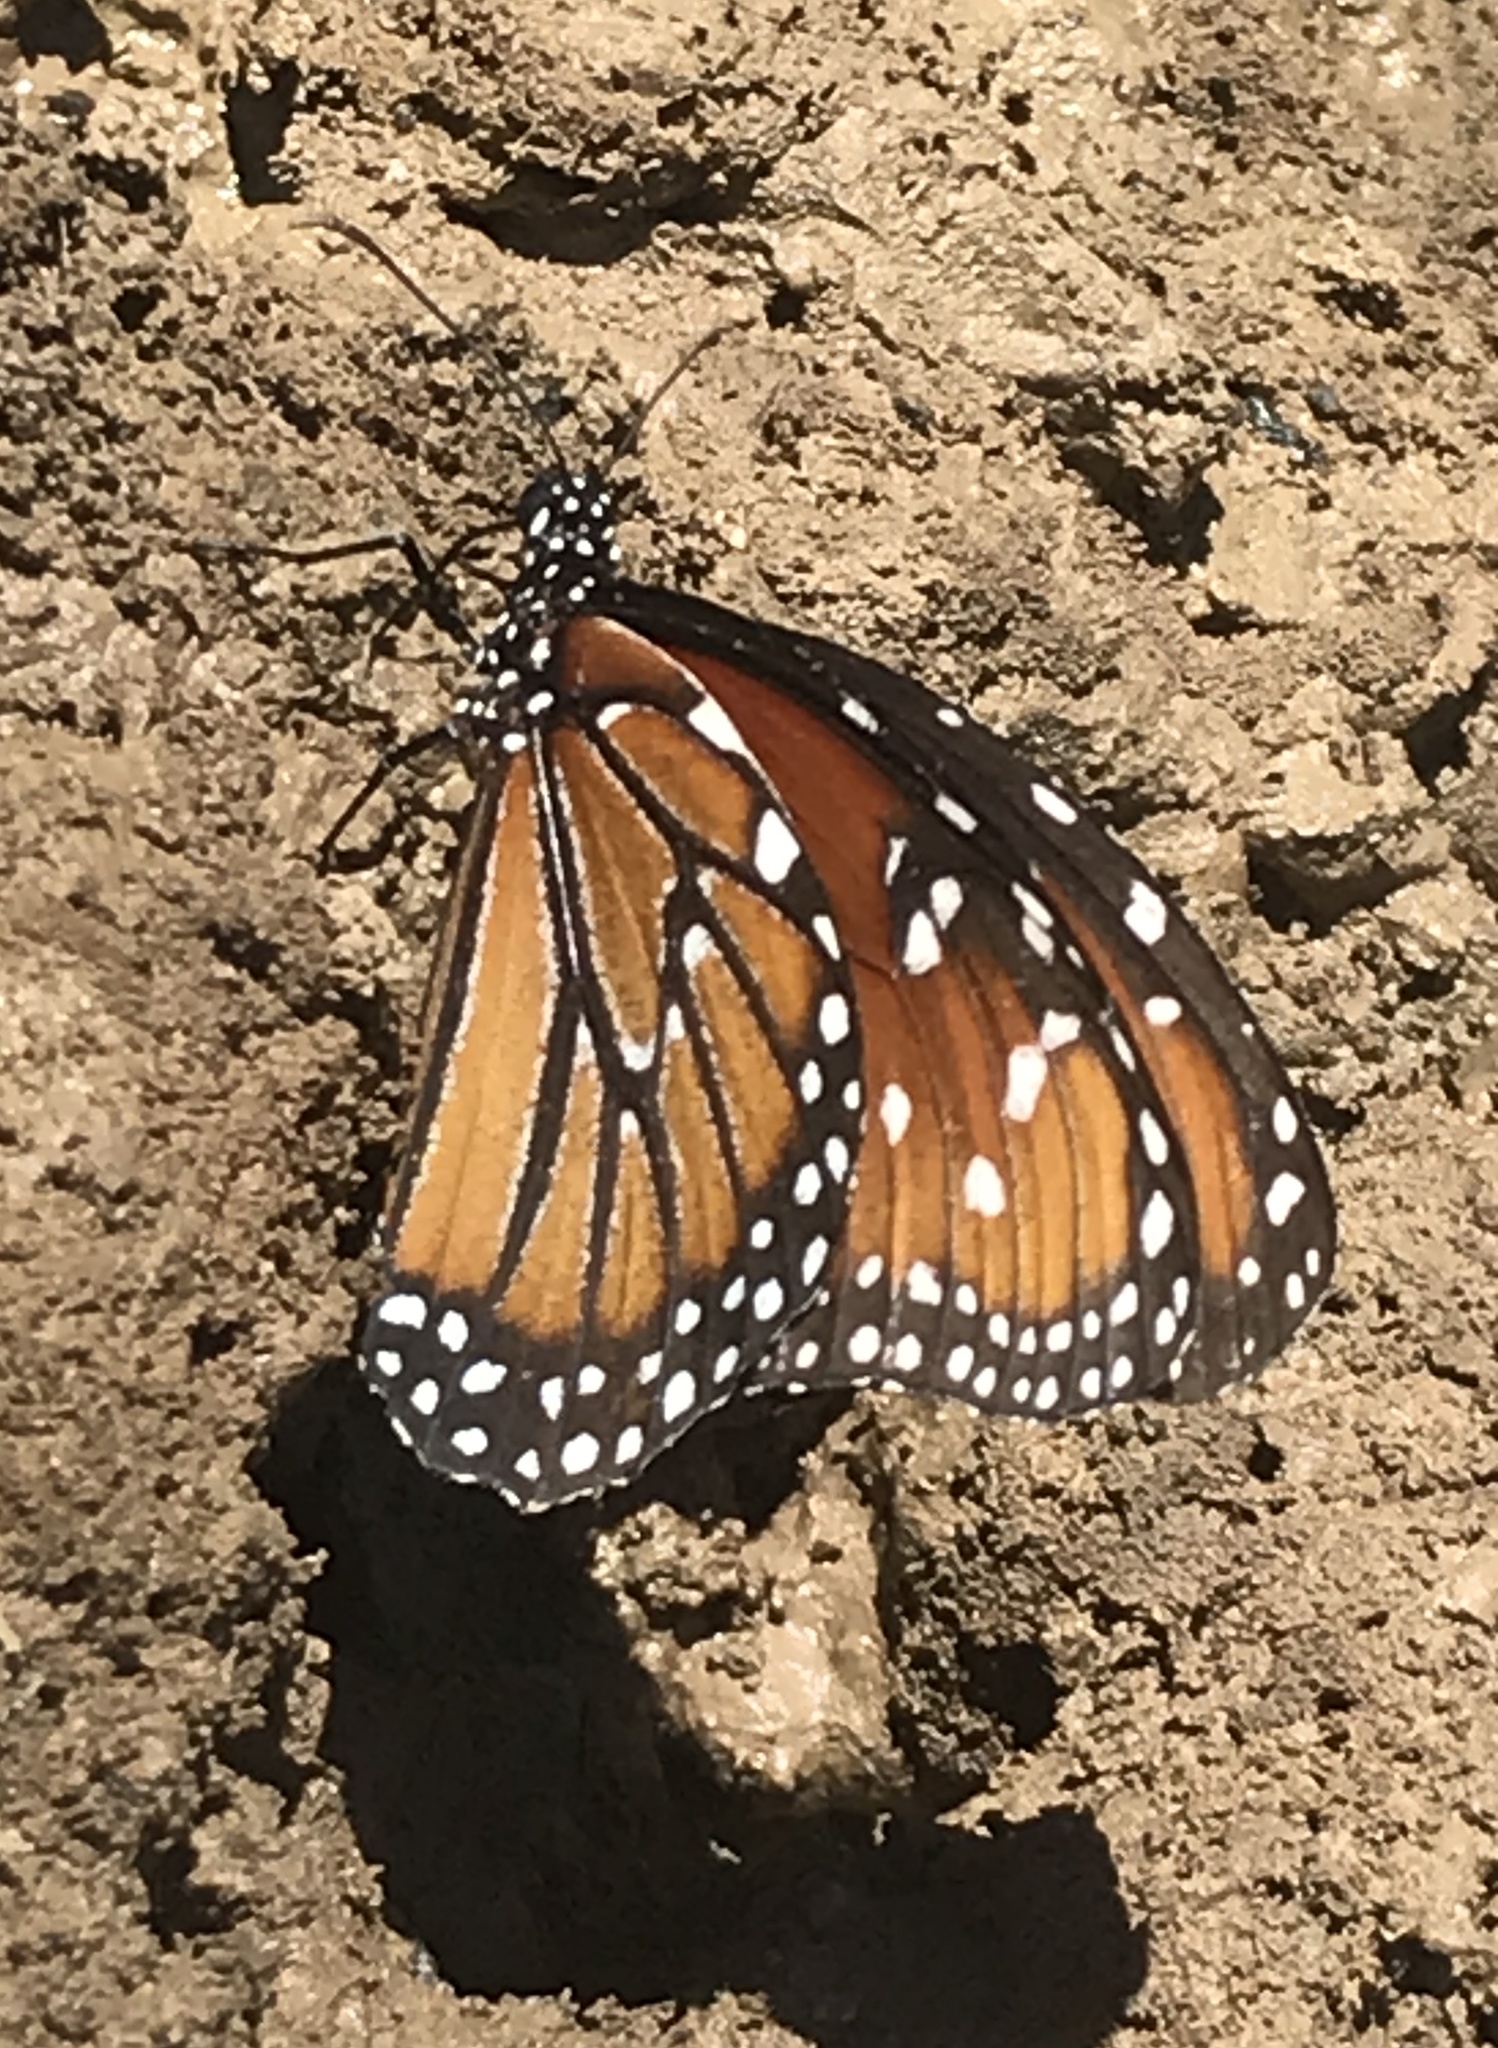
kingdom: Animalia
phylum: Arthropoda
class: Insecta
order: Lepidoptera
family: Nymphalidae
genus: Danaus
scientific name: Danaus gilippus
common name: Queen
